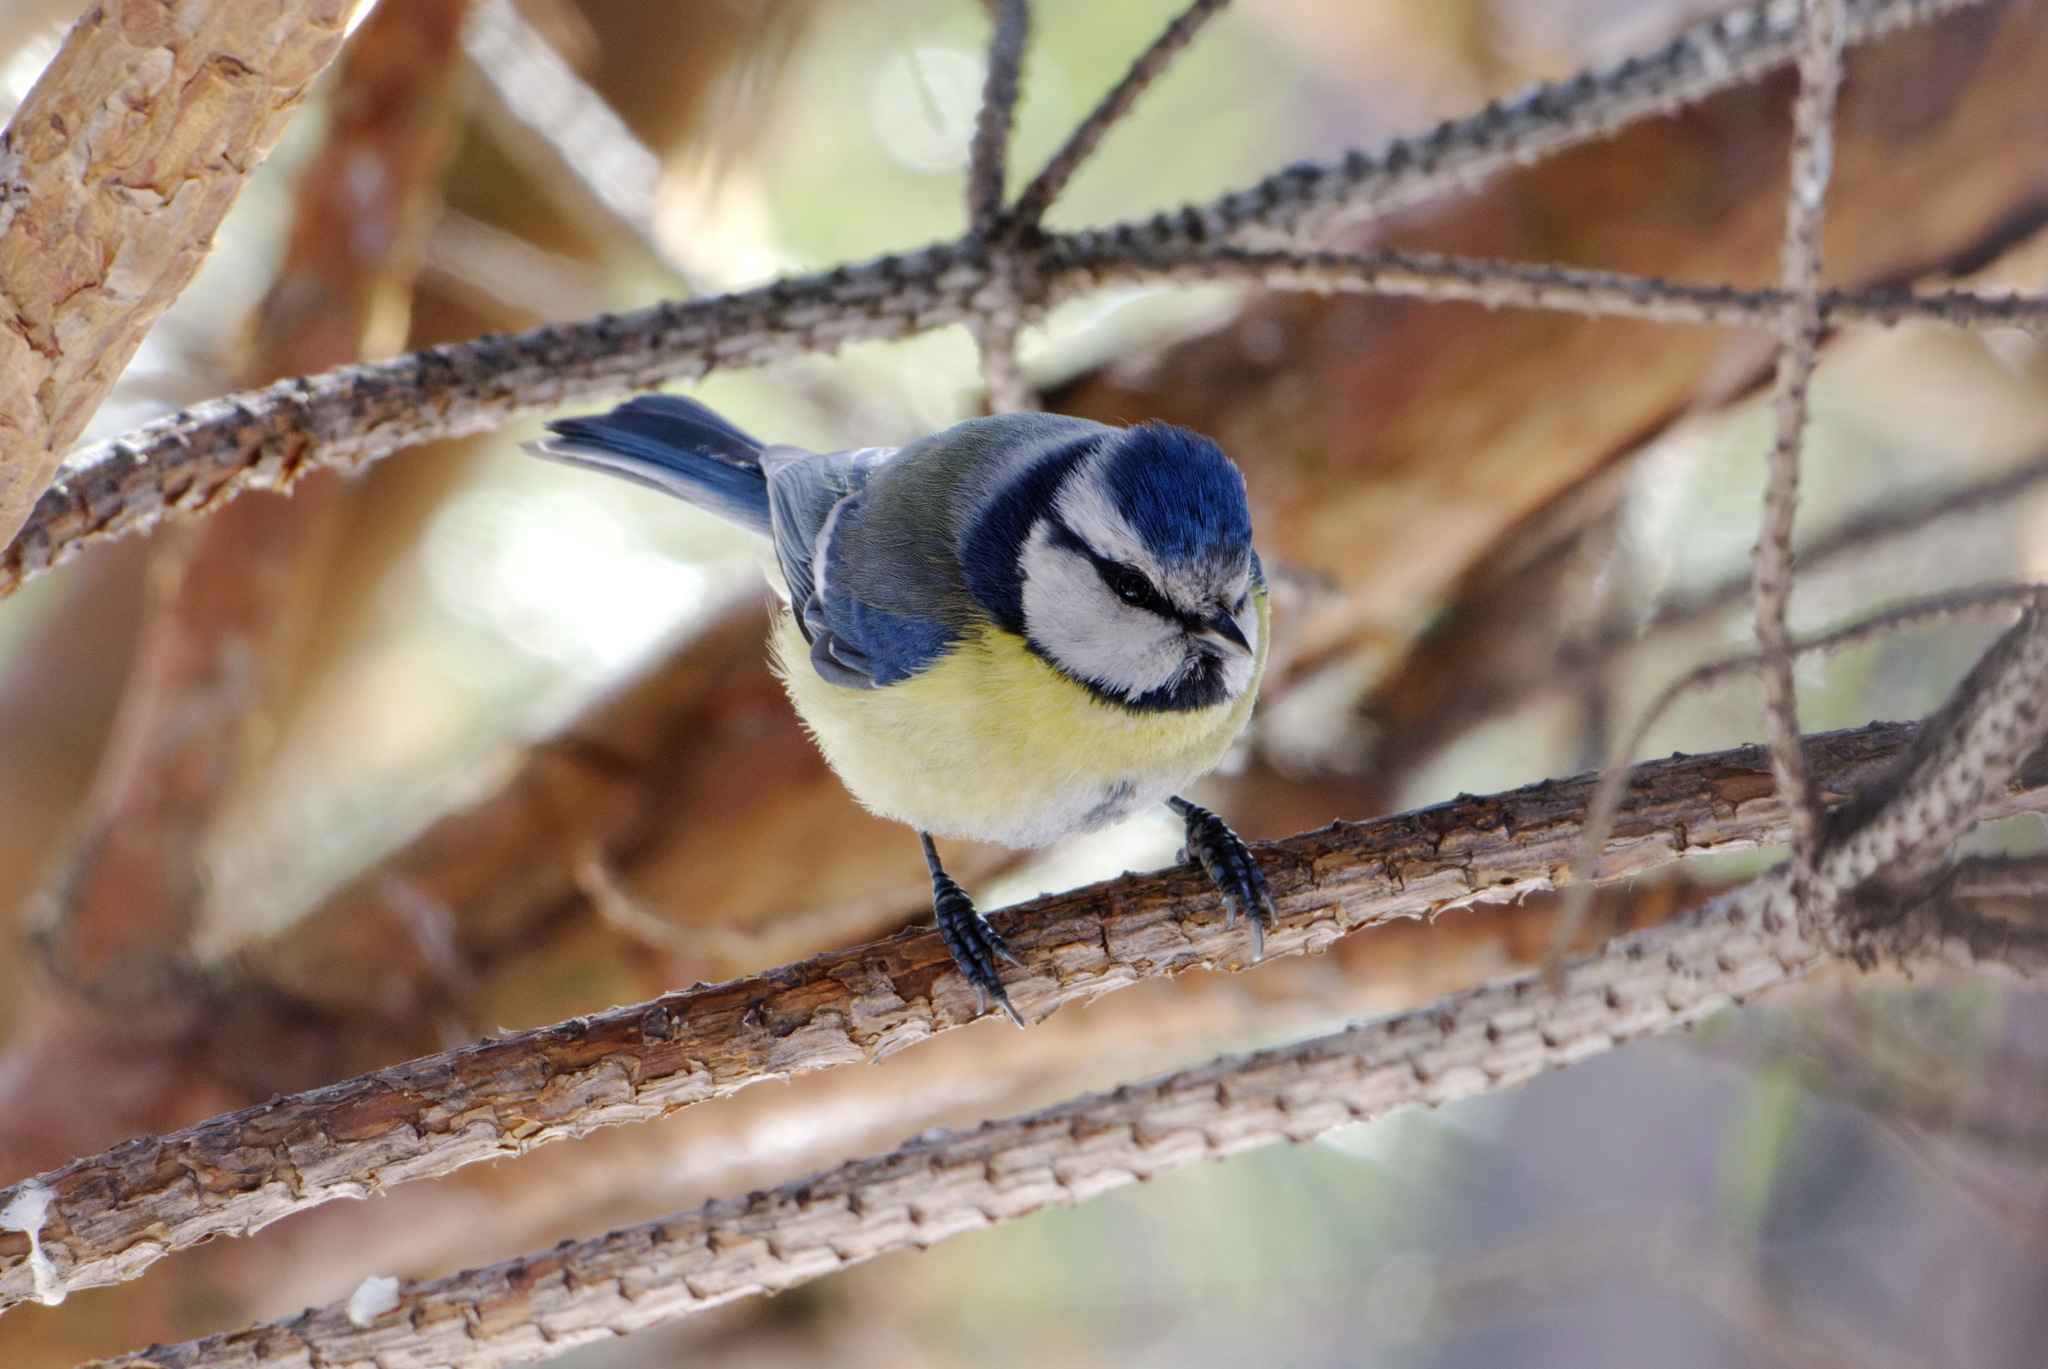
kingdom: Animalia
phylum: Chordata
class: Aves
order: Passeriformes
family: Paridae
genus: Cyanistes
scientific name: Cyanistes caeruleus
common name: Eurasian blue tit
